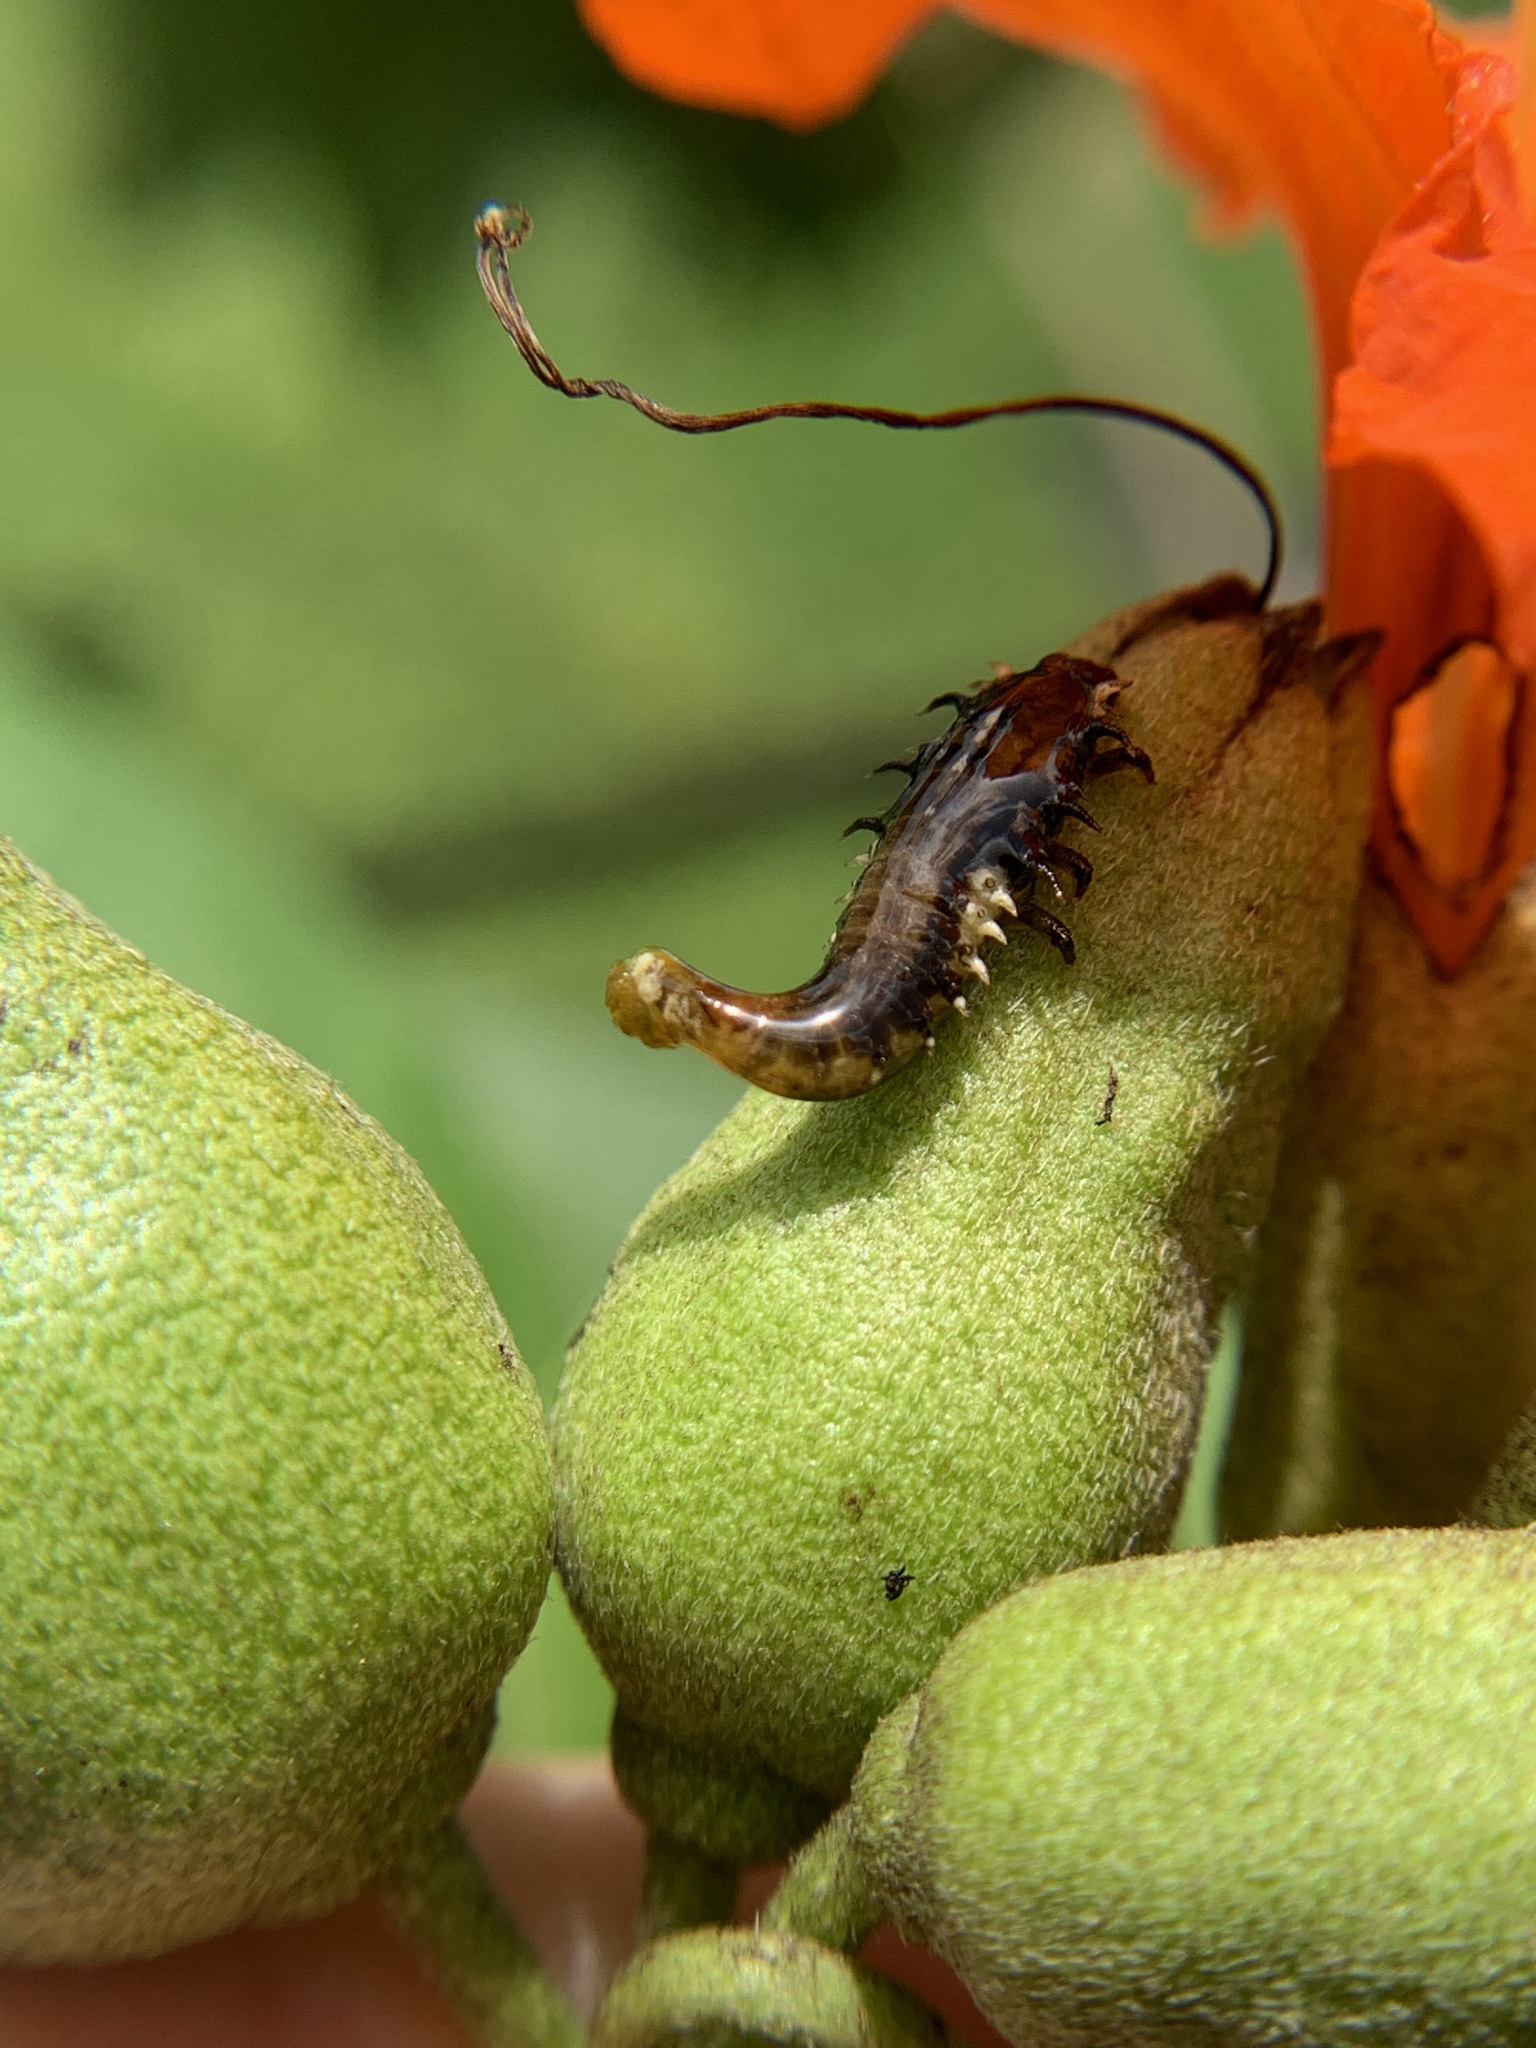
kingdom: Animalia
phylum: Arthropoda
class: Insecta
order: Coleoptera
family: Chrysomelidae
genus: Eurypepla
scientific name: Eurypepla calochroma
